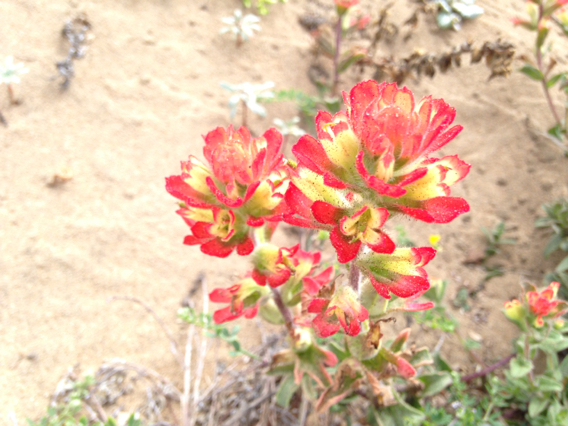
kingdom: Plantae
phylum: Tracheophyta
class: Magnoliopsida
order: Lamiales
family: Orobanchaceae
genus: Castilleja
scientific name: Castilleja affinis
